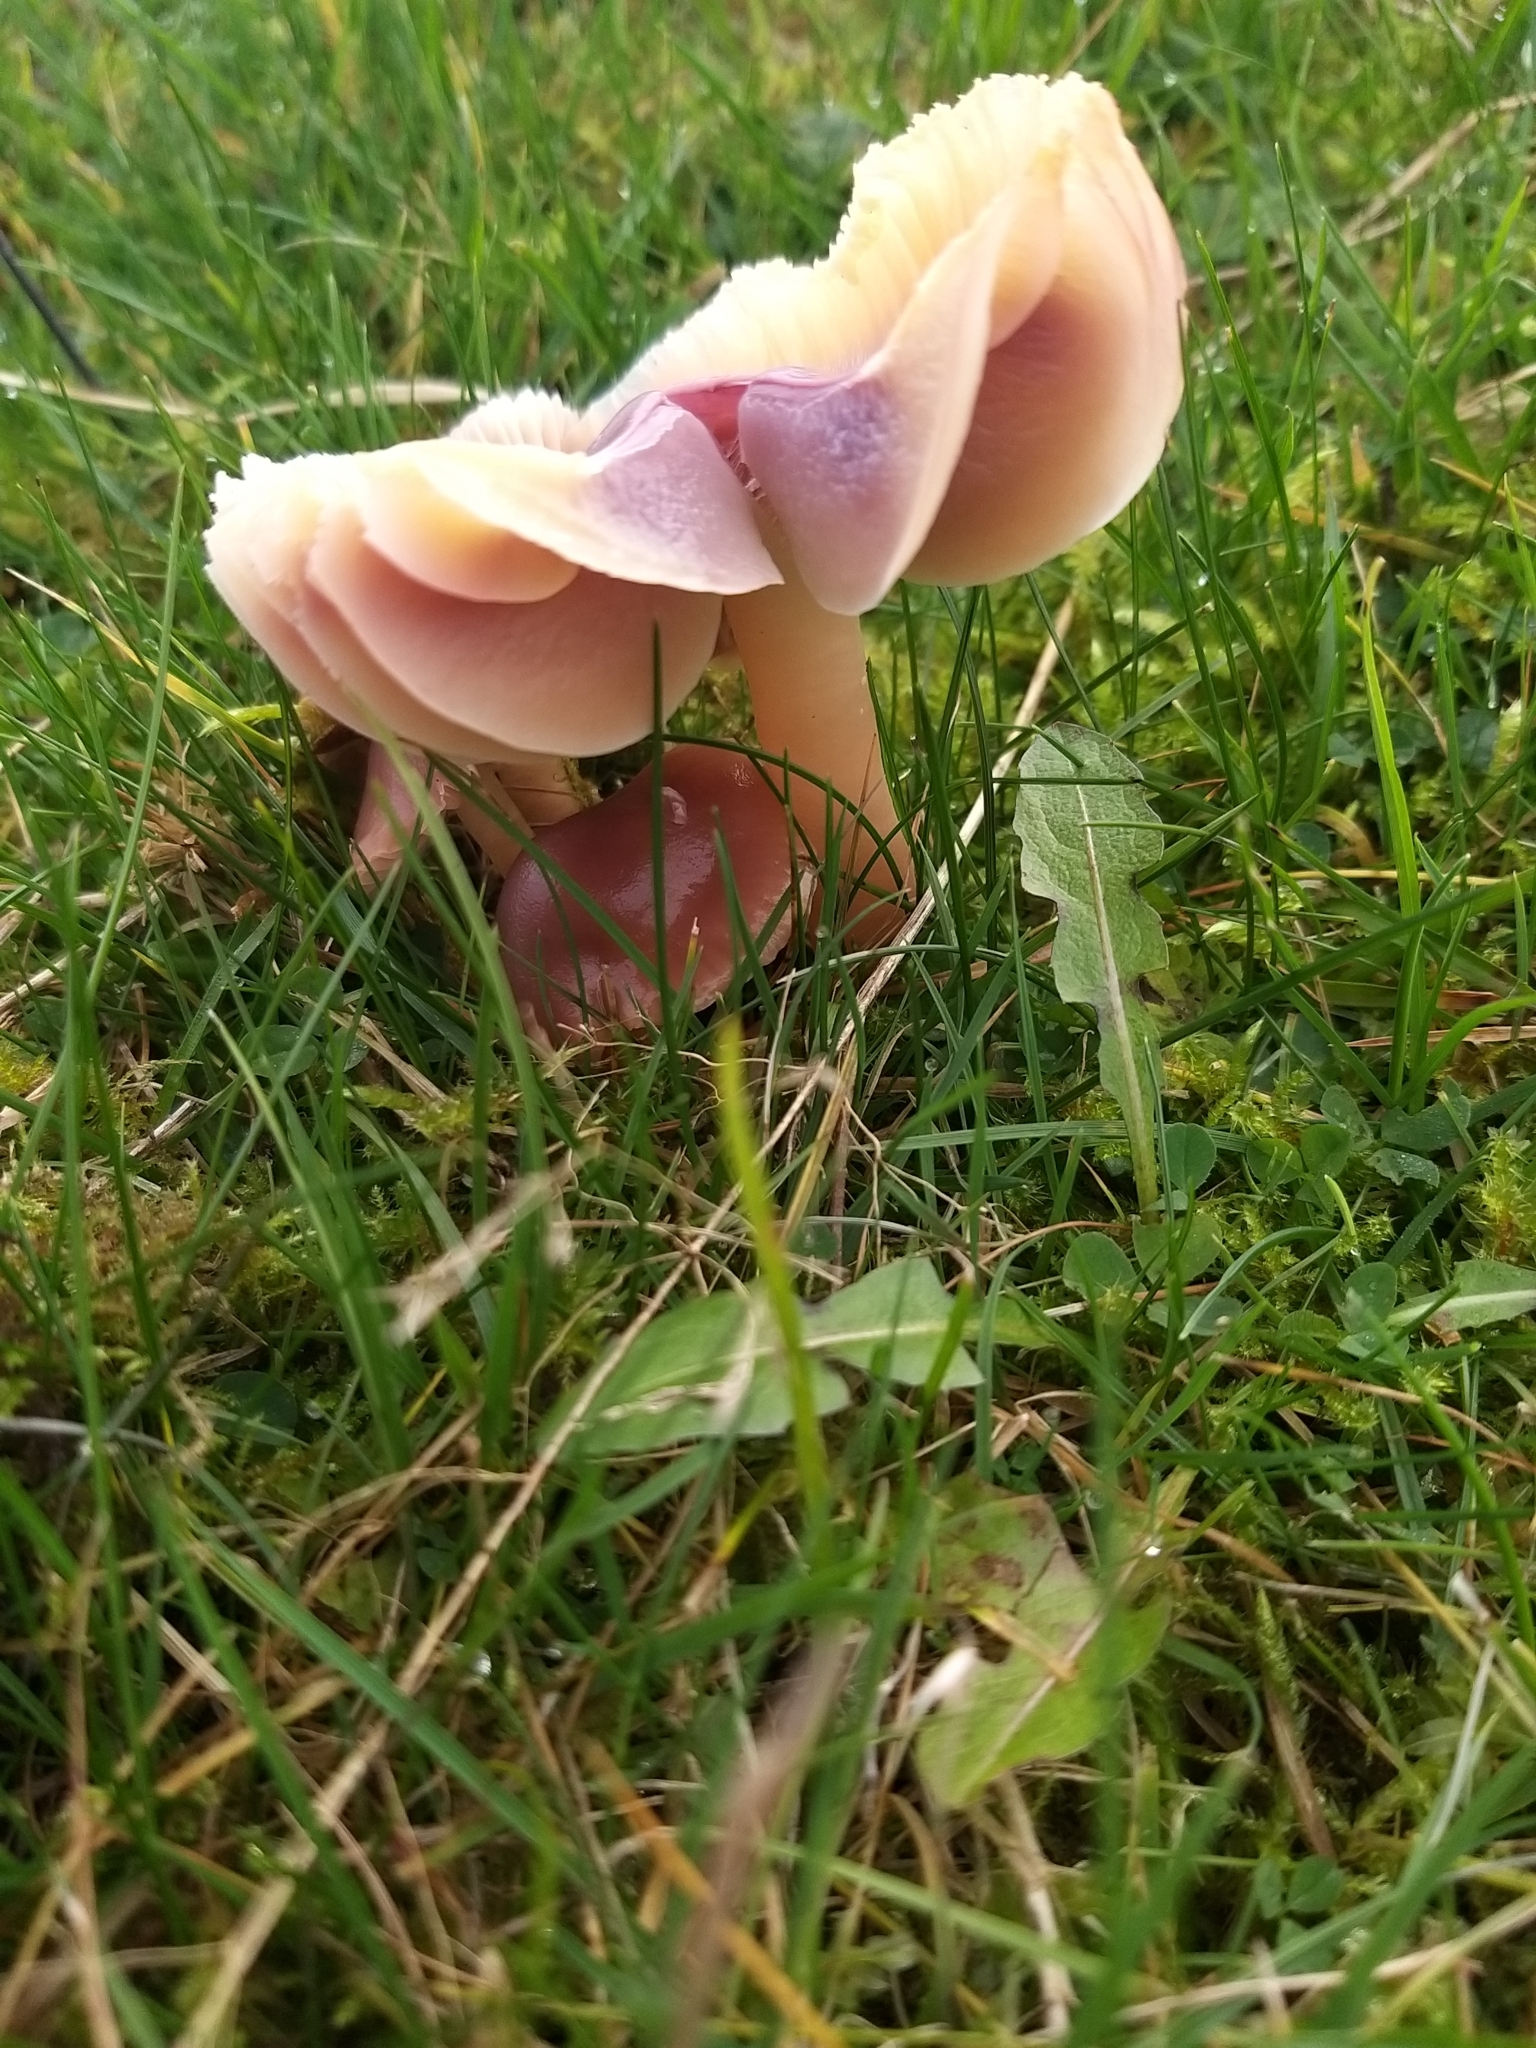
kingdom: Fungi
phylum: Basidiomycota
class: Agaricomycetes
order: Agaricales
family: Hygrophoraceae
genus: Gliophorus
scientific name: Gliophorus reginae
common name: Jubilee waxcap
